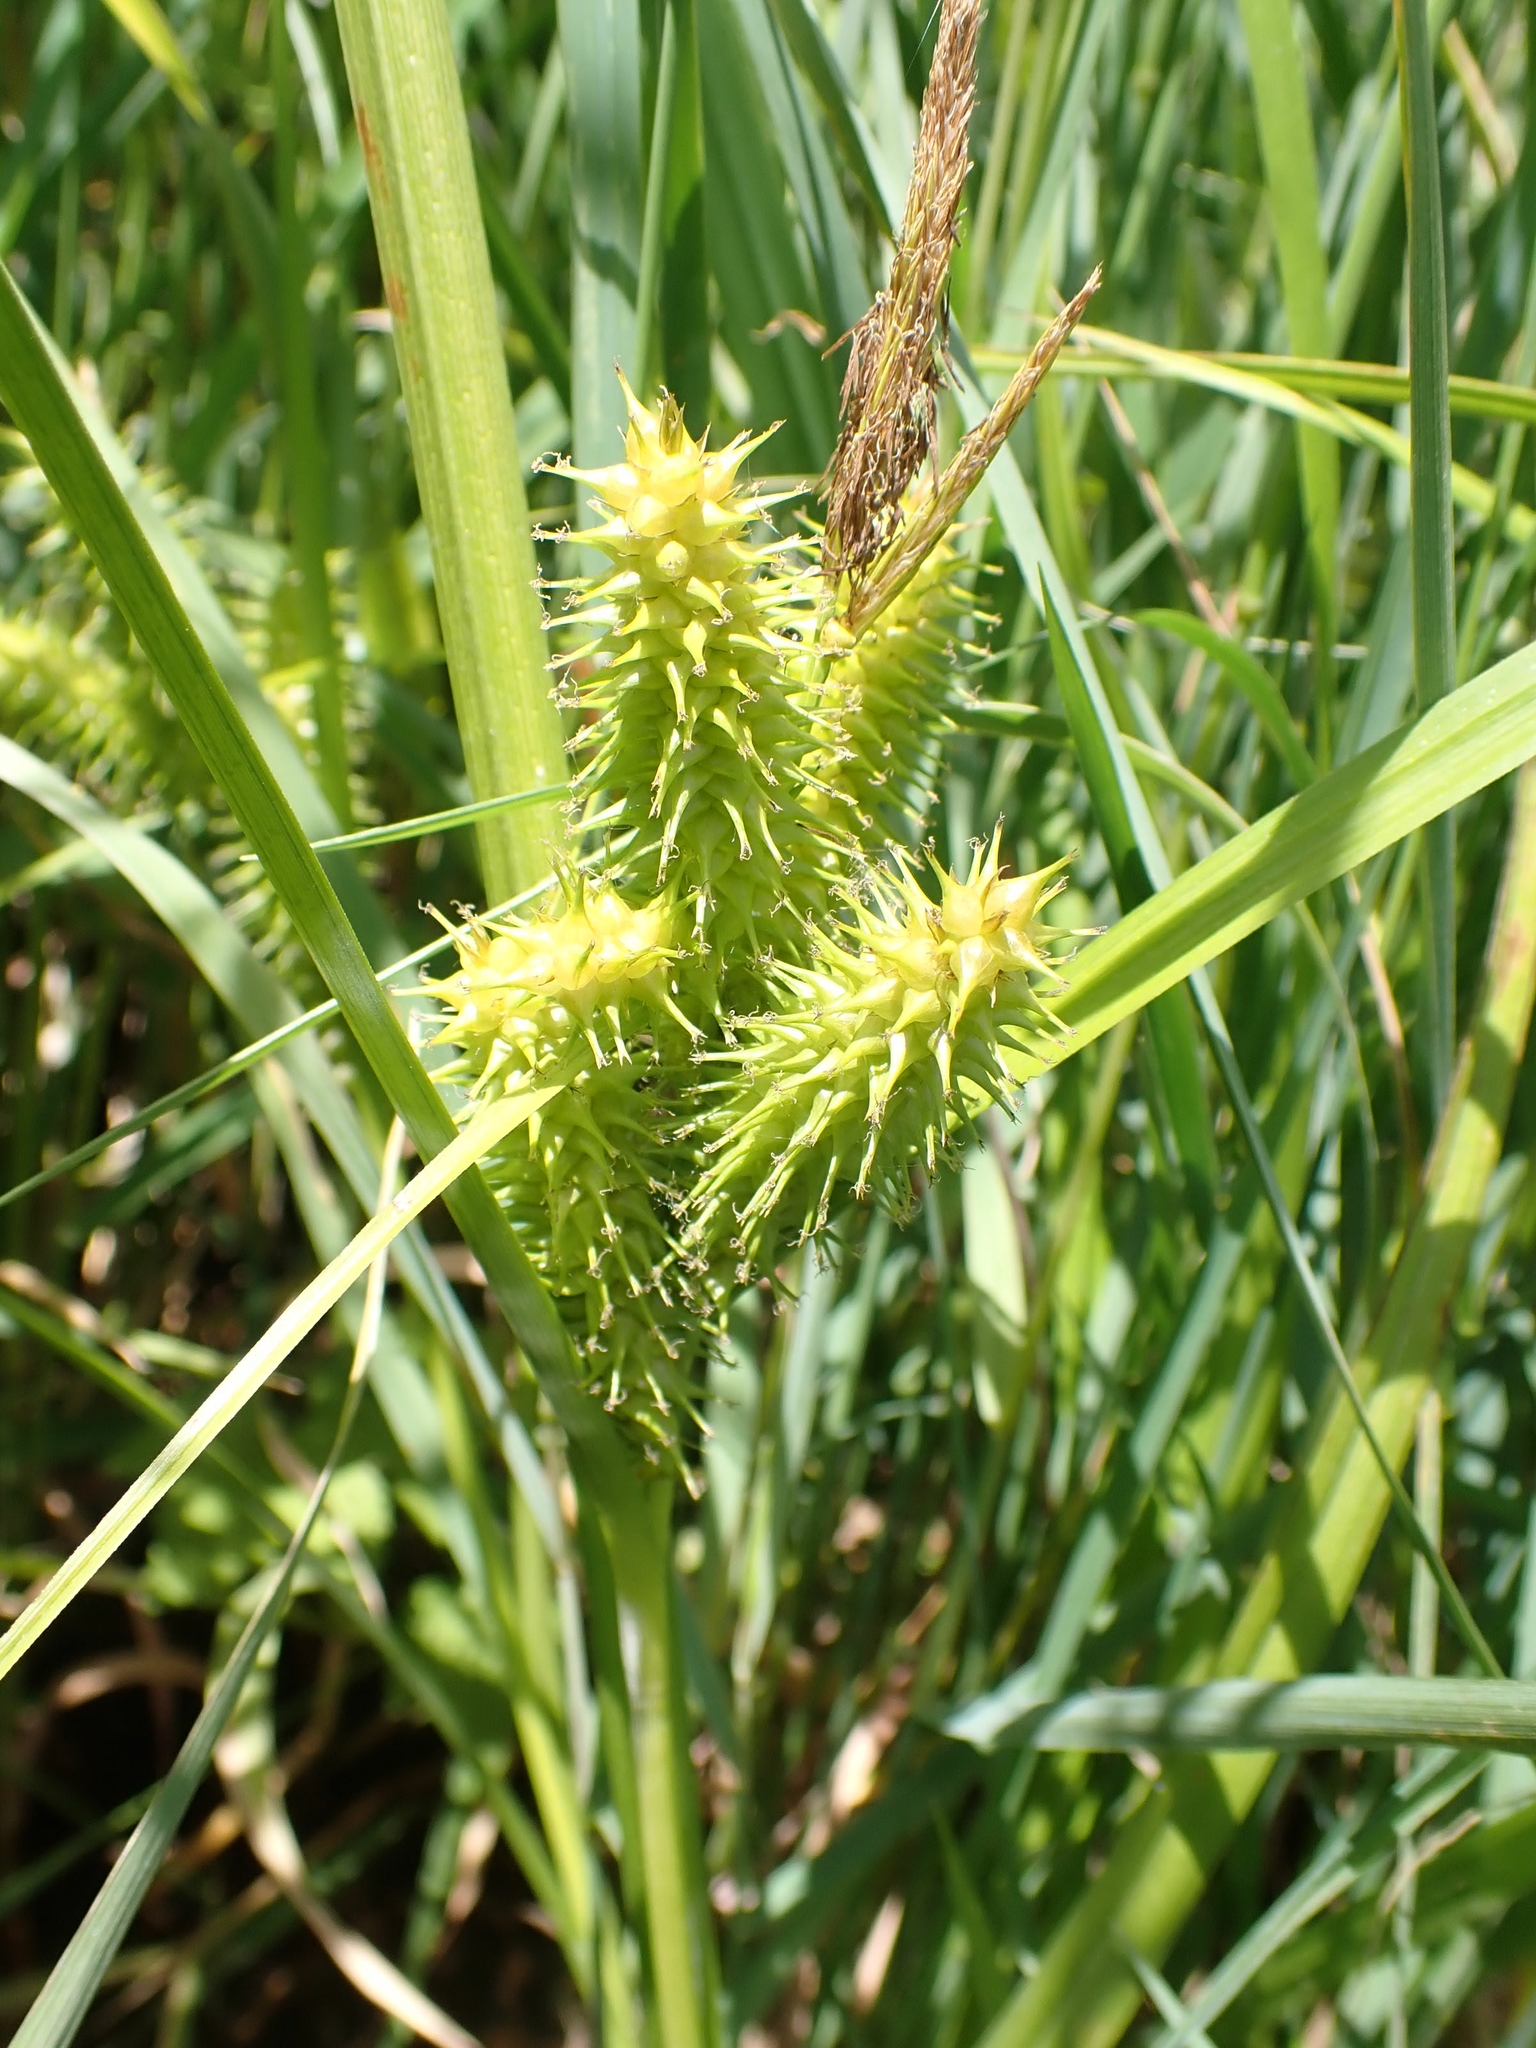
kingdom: Plantae
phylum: Tracheophyta
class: Liliopsida
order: Poales
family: Cyperaceae
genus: Carex
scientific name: Carex retrorsa
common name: Knot-sheath sedge
